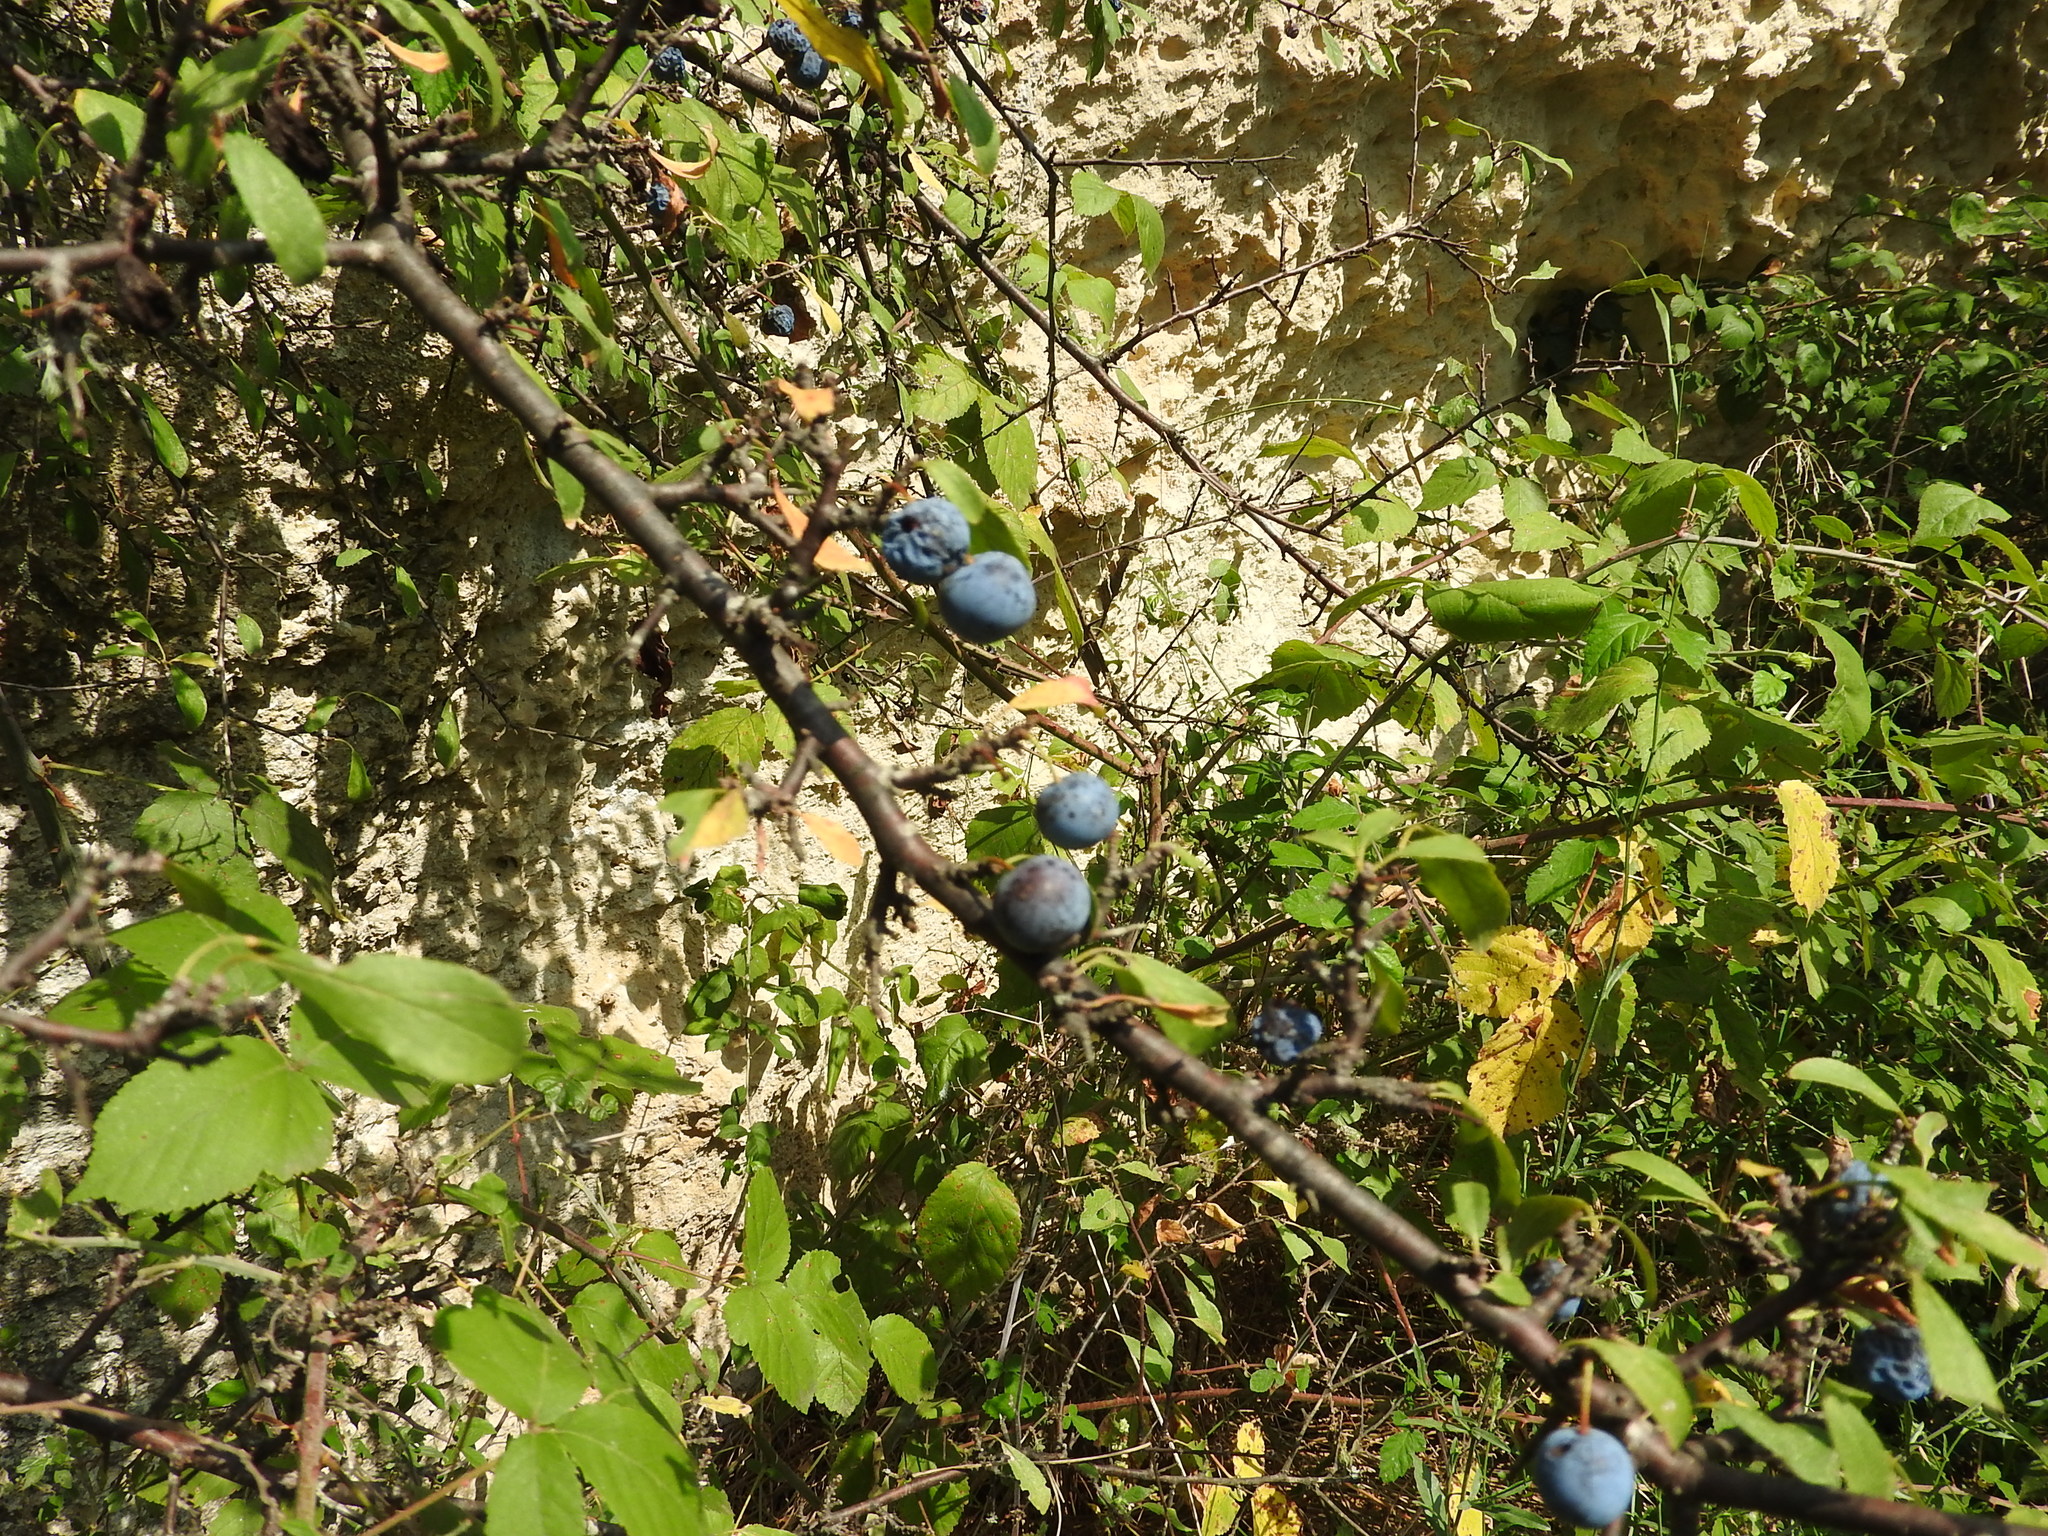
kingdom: Plantae
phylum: Tracheophyta
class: Magnoliopsida
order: Rosales
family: Rosaceae
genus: Prunus
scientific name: Prunus spinosa
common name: Blackthorn
